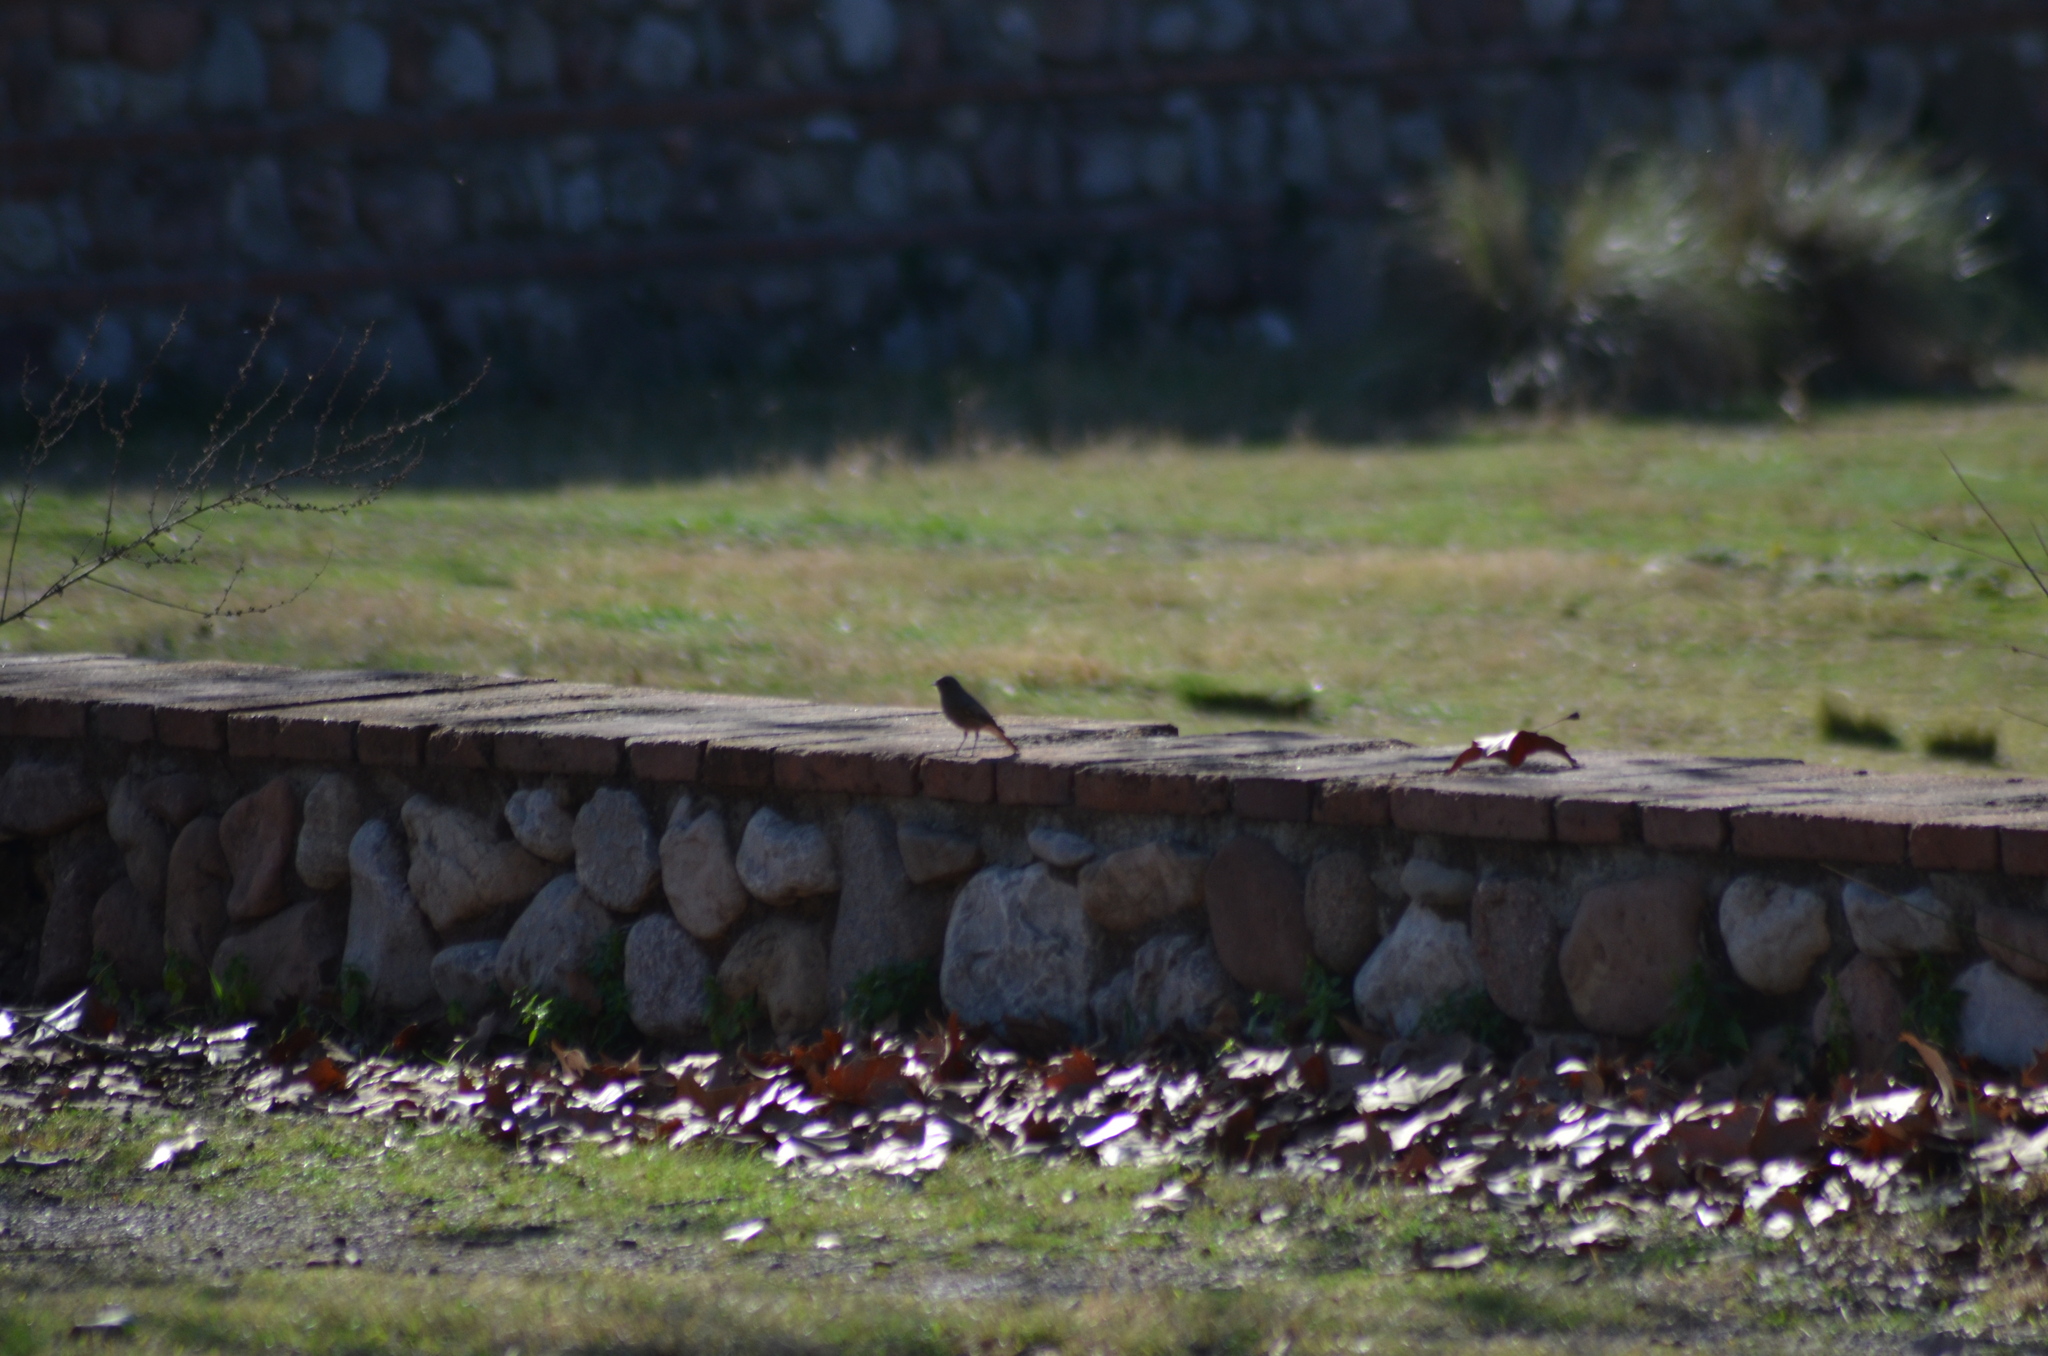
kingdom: Animalia
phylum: Chordata
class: Aves
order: Passeriformes
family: Muscicapidae
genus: Phoenicurus
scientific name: Phoenicurus ochruros
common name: Black redstart
